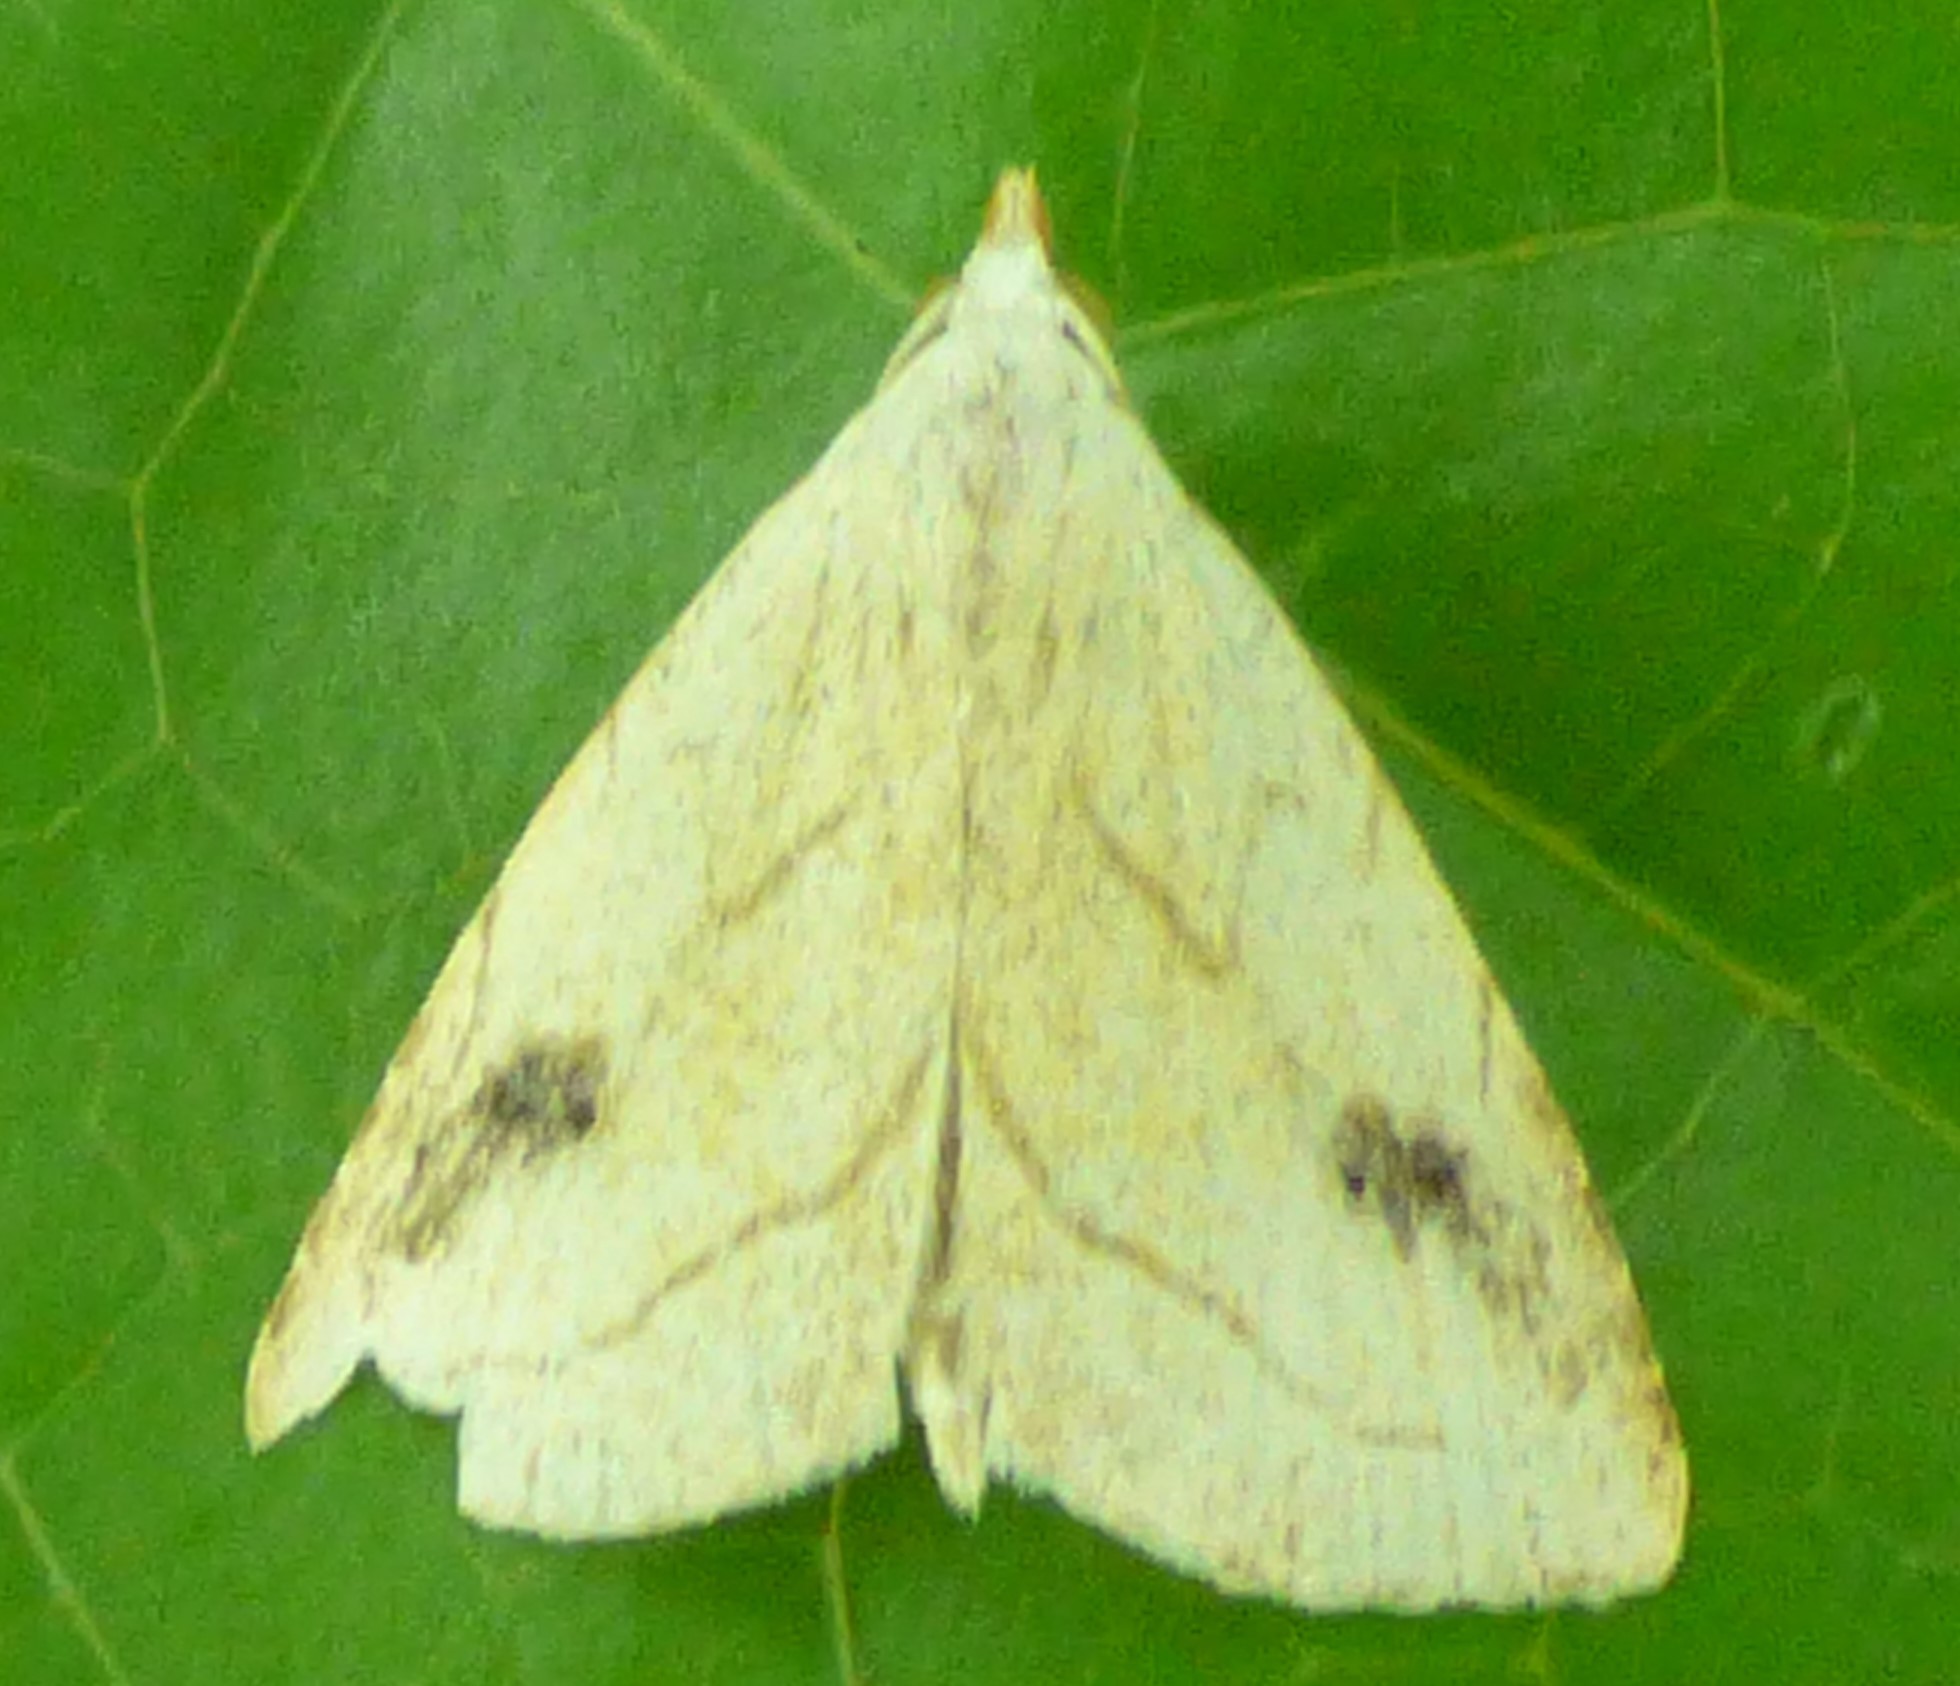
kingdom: Animalia
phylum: Arthropoda
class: Insecta
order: Lepidoptera
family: Erebidae
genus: Rivula
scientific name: Rivula propinqualis
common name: Spotted grass moth
